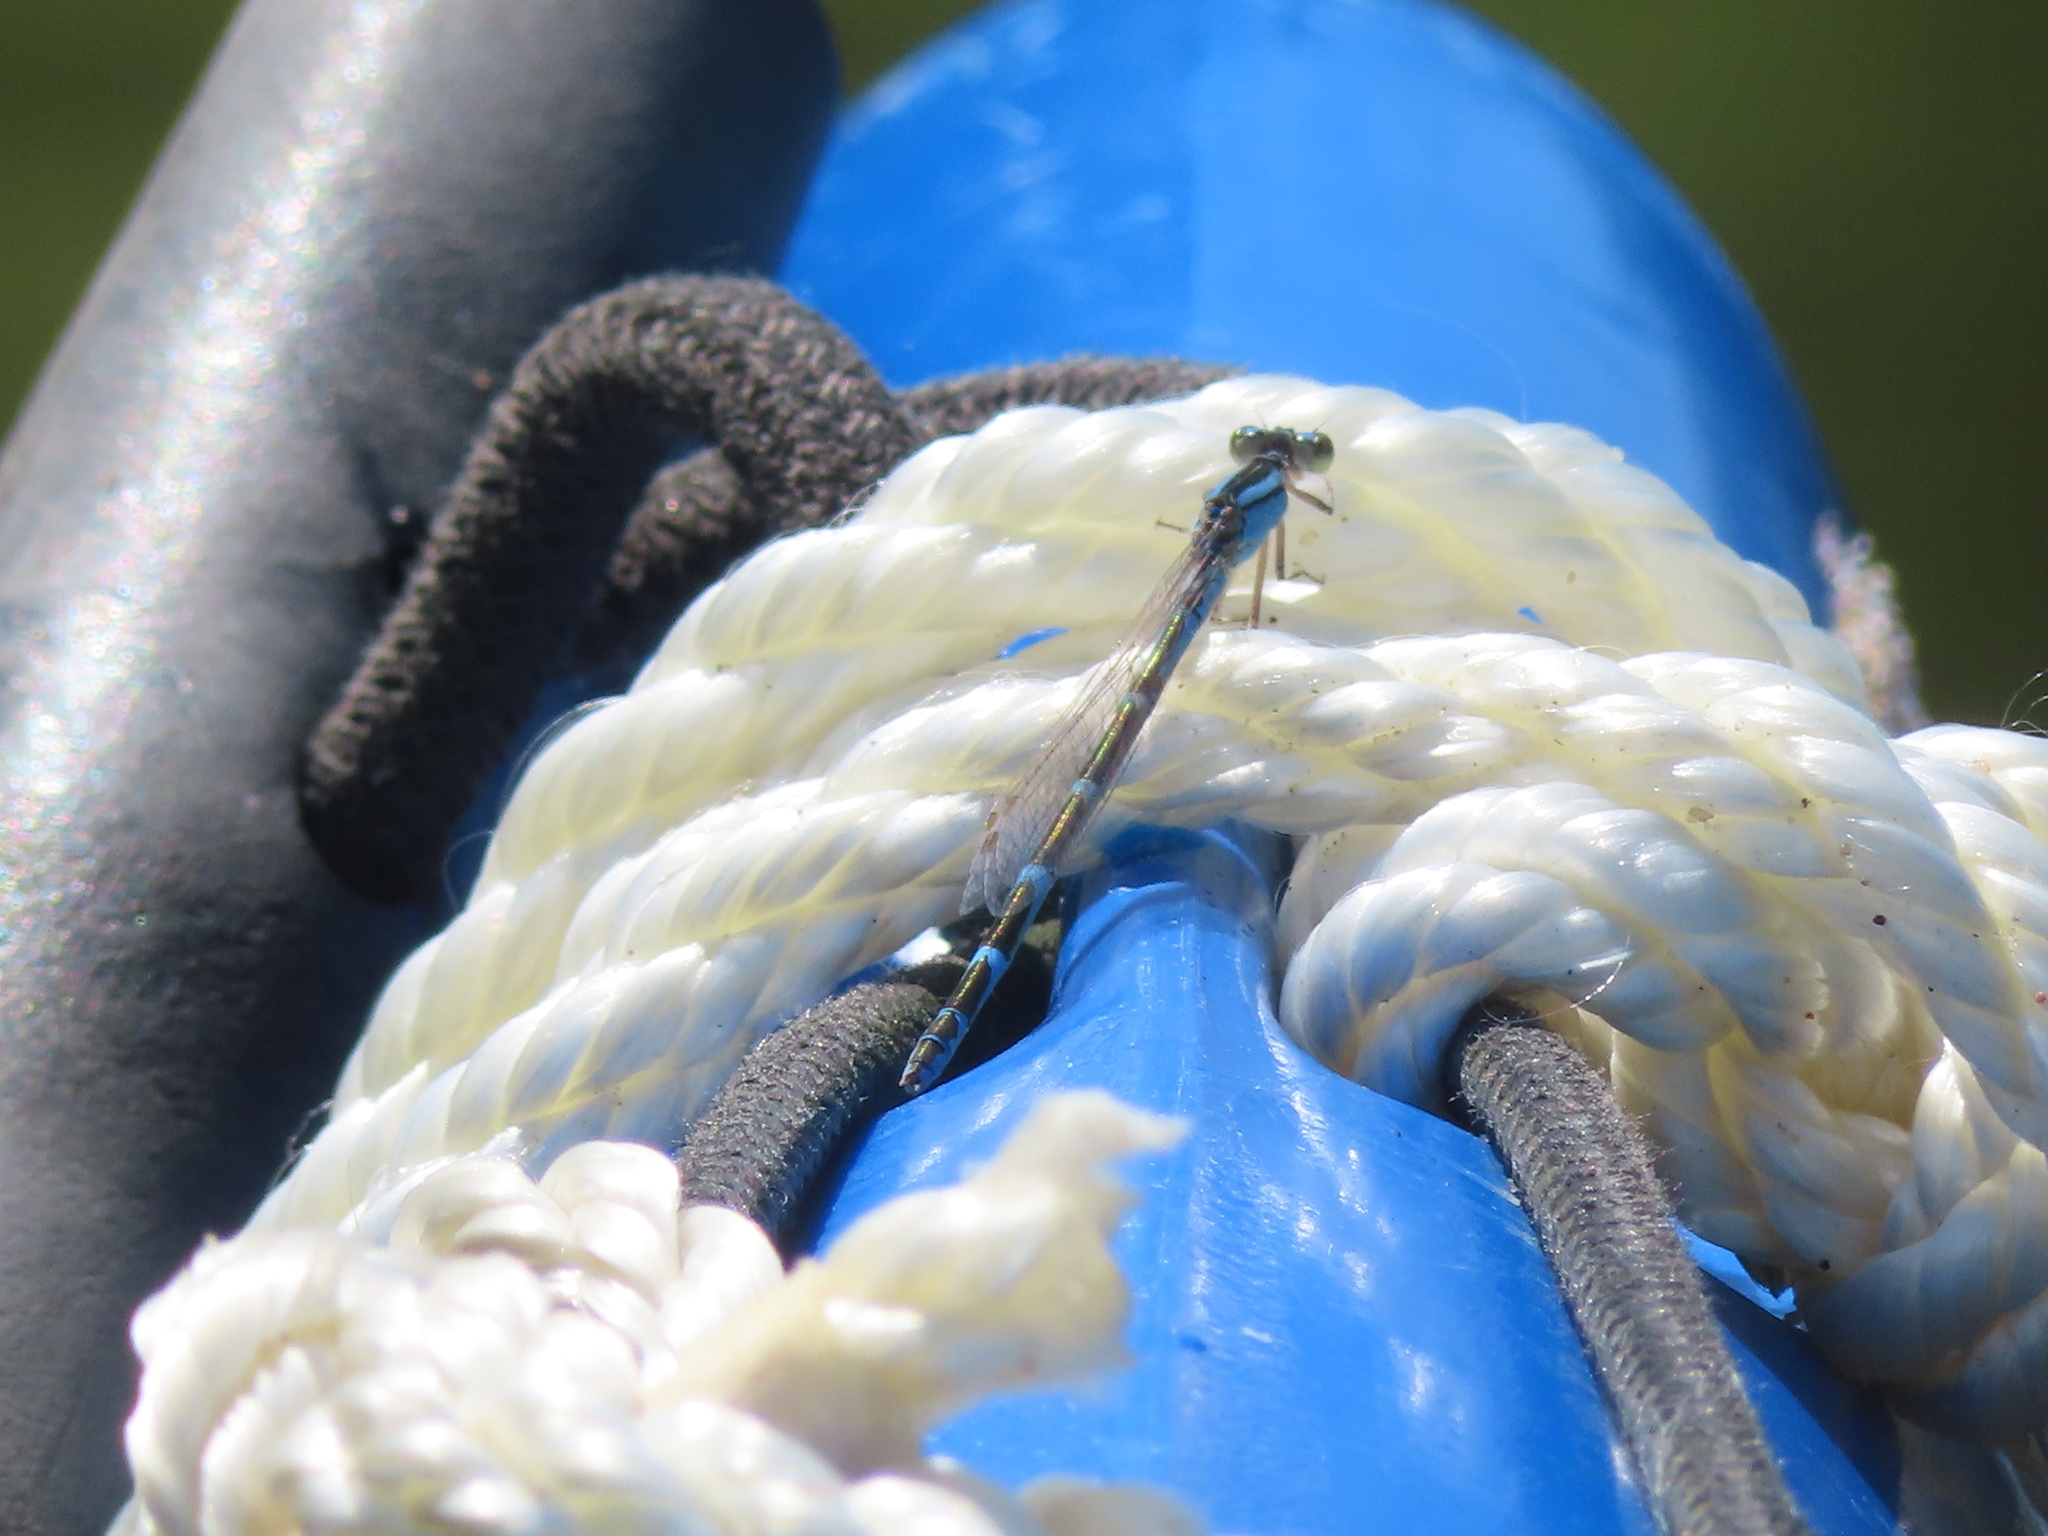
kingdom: Animalia
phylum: Arthropoda
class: Insecta
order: Odonata
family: Coenagrionidae
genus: Enallagma
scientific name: Enallagma
